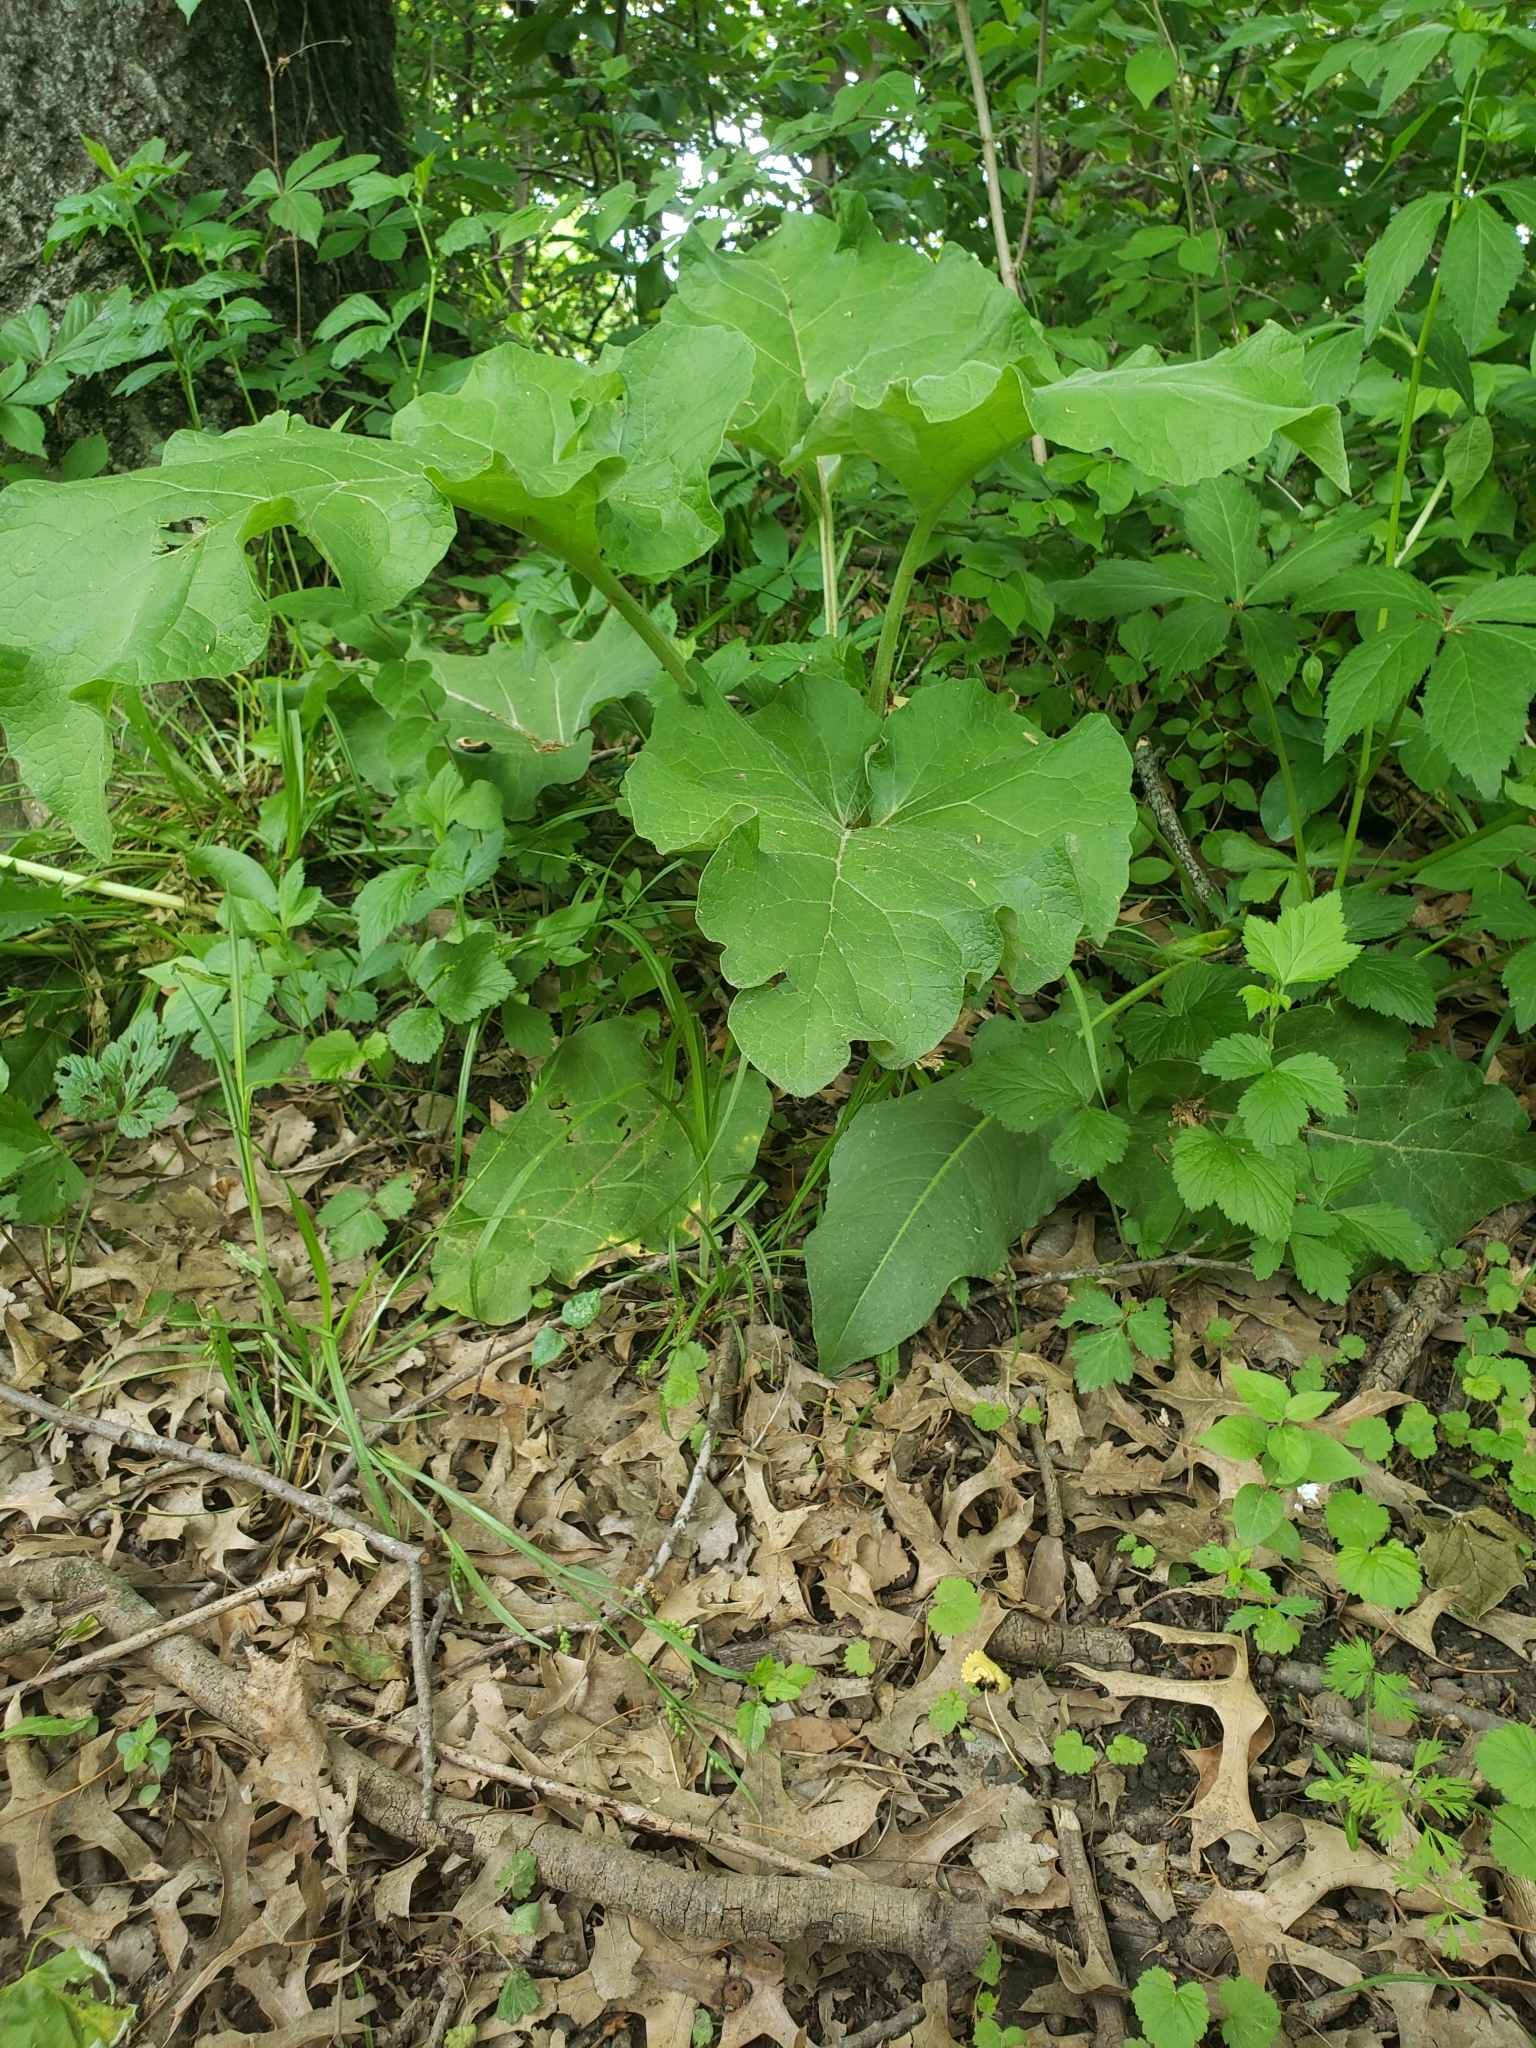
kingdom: Plantae
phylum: Tracheophyta
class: Magnoliopsida
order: Asterales
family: Asteraceae
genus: Arctium
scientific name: Arctium minus
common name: Lesser burdock
